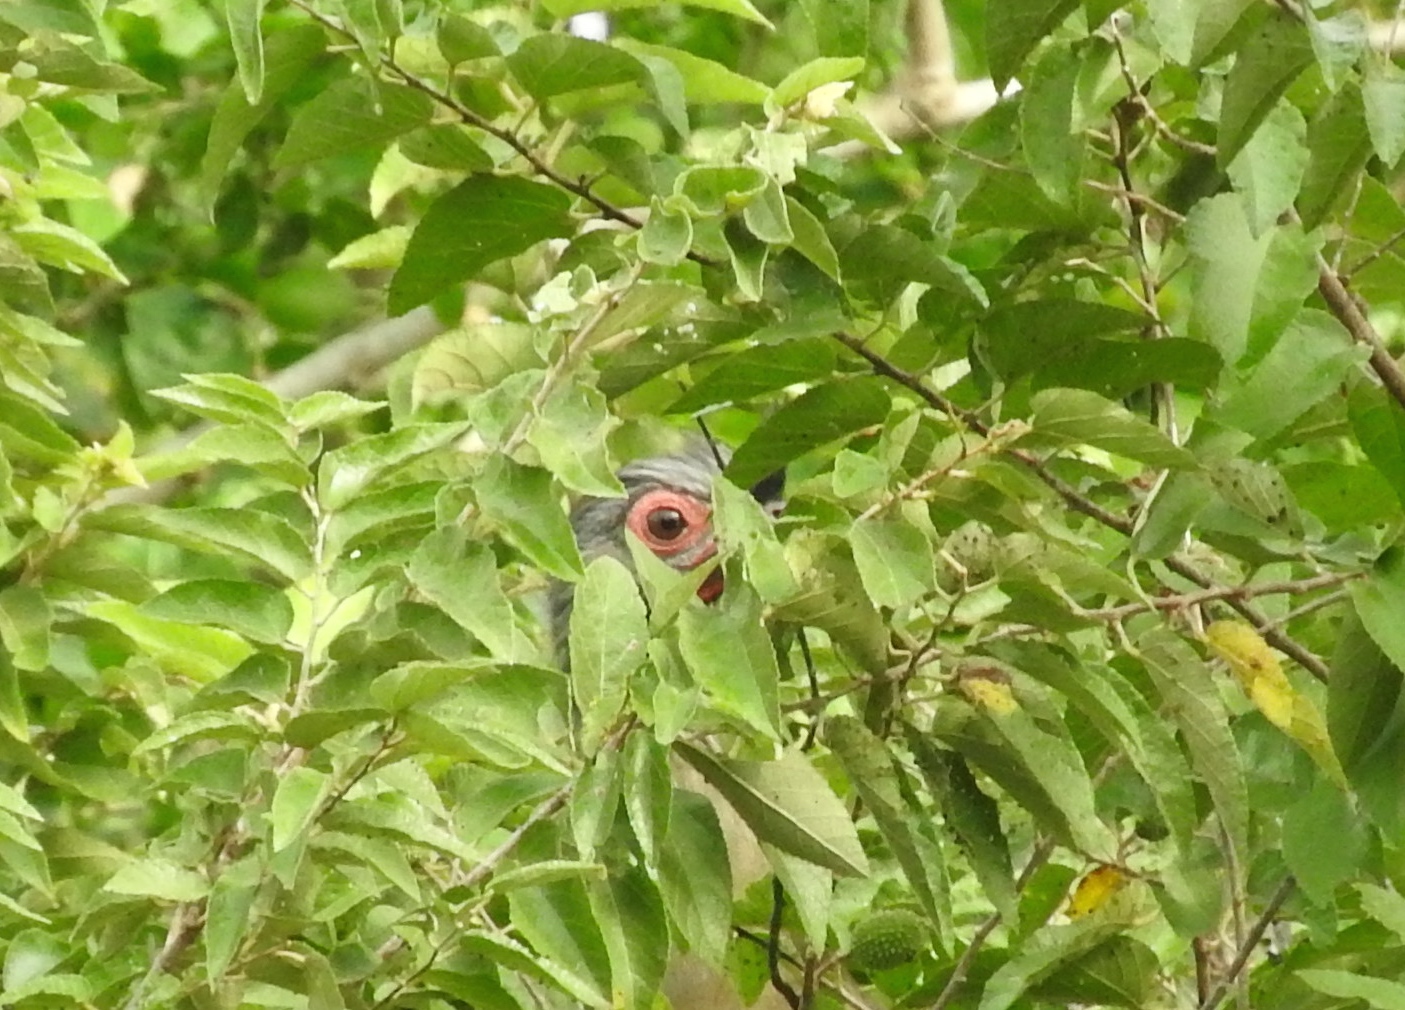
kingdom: Animalia
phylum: Chordata
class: Aves
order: Galliformes
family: Cracidae
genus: Ortalis
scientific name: Ortalis wagleri
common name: Rufous-bellied chachalaca
